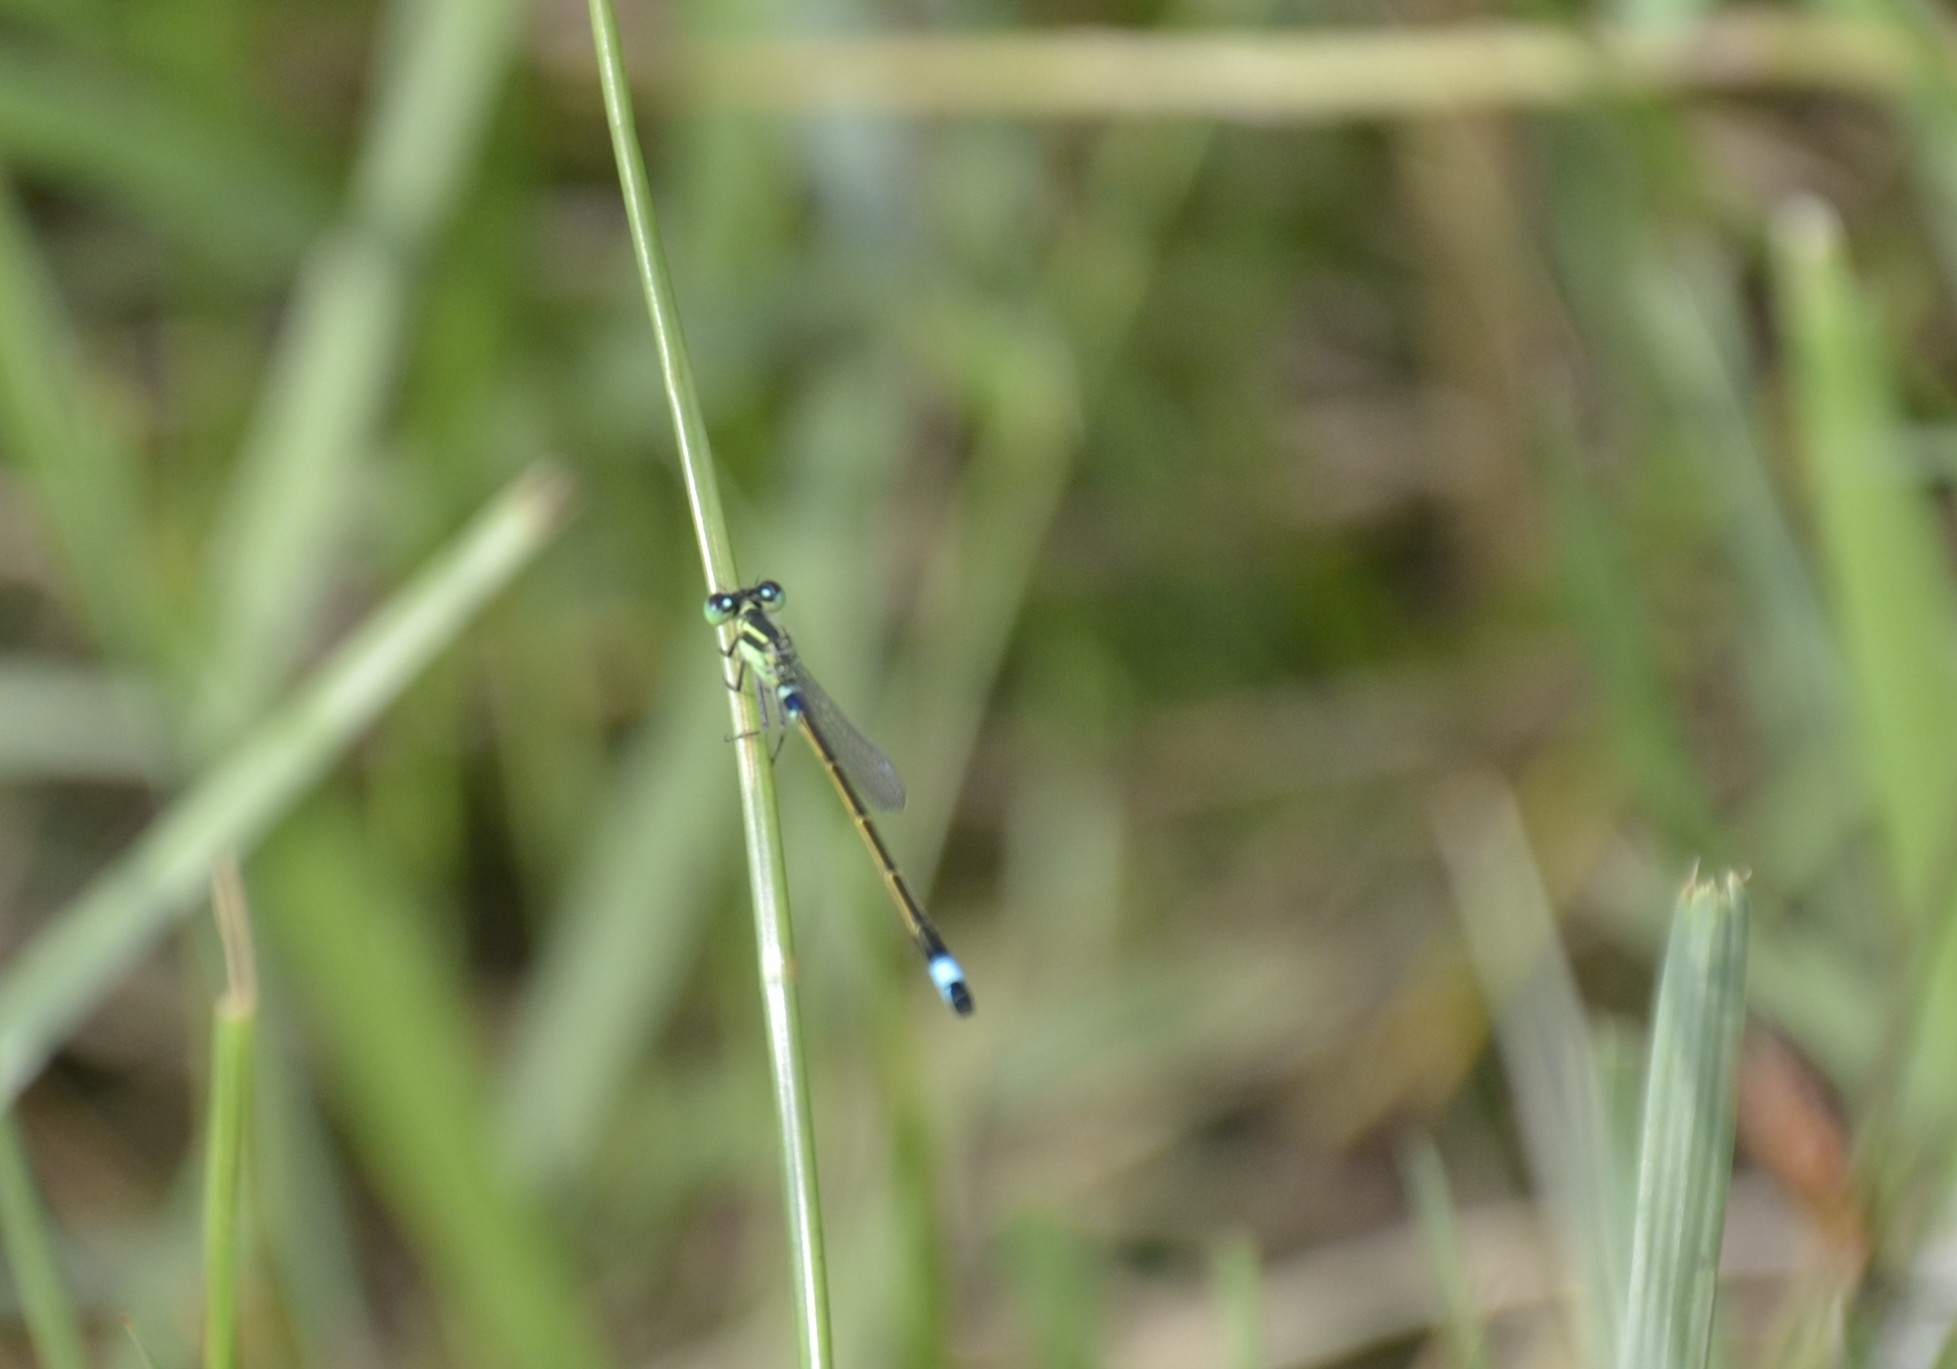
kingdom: Animalia
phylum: Arthropoda
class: Insecta
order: Odonata
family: Coenagrionidae
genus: Ischnura
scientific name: Ischnura senegalensis
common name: Tropical bluetail
